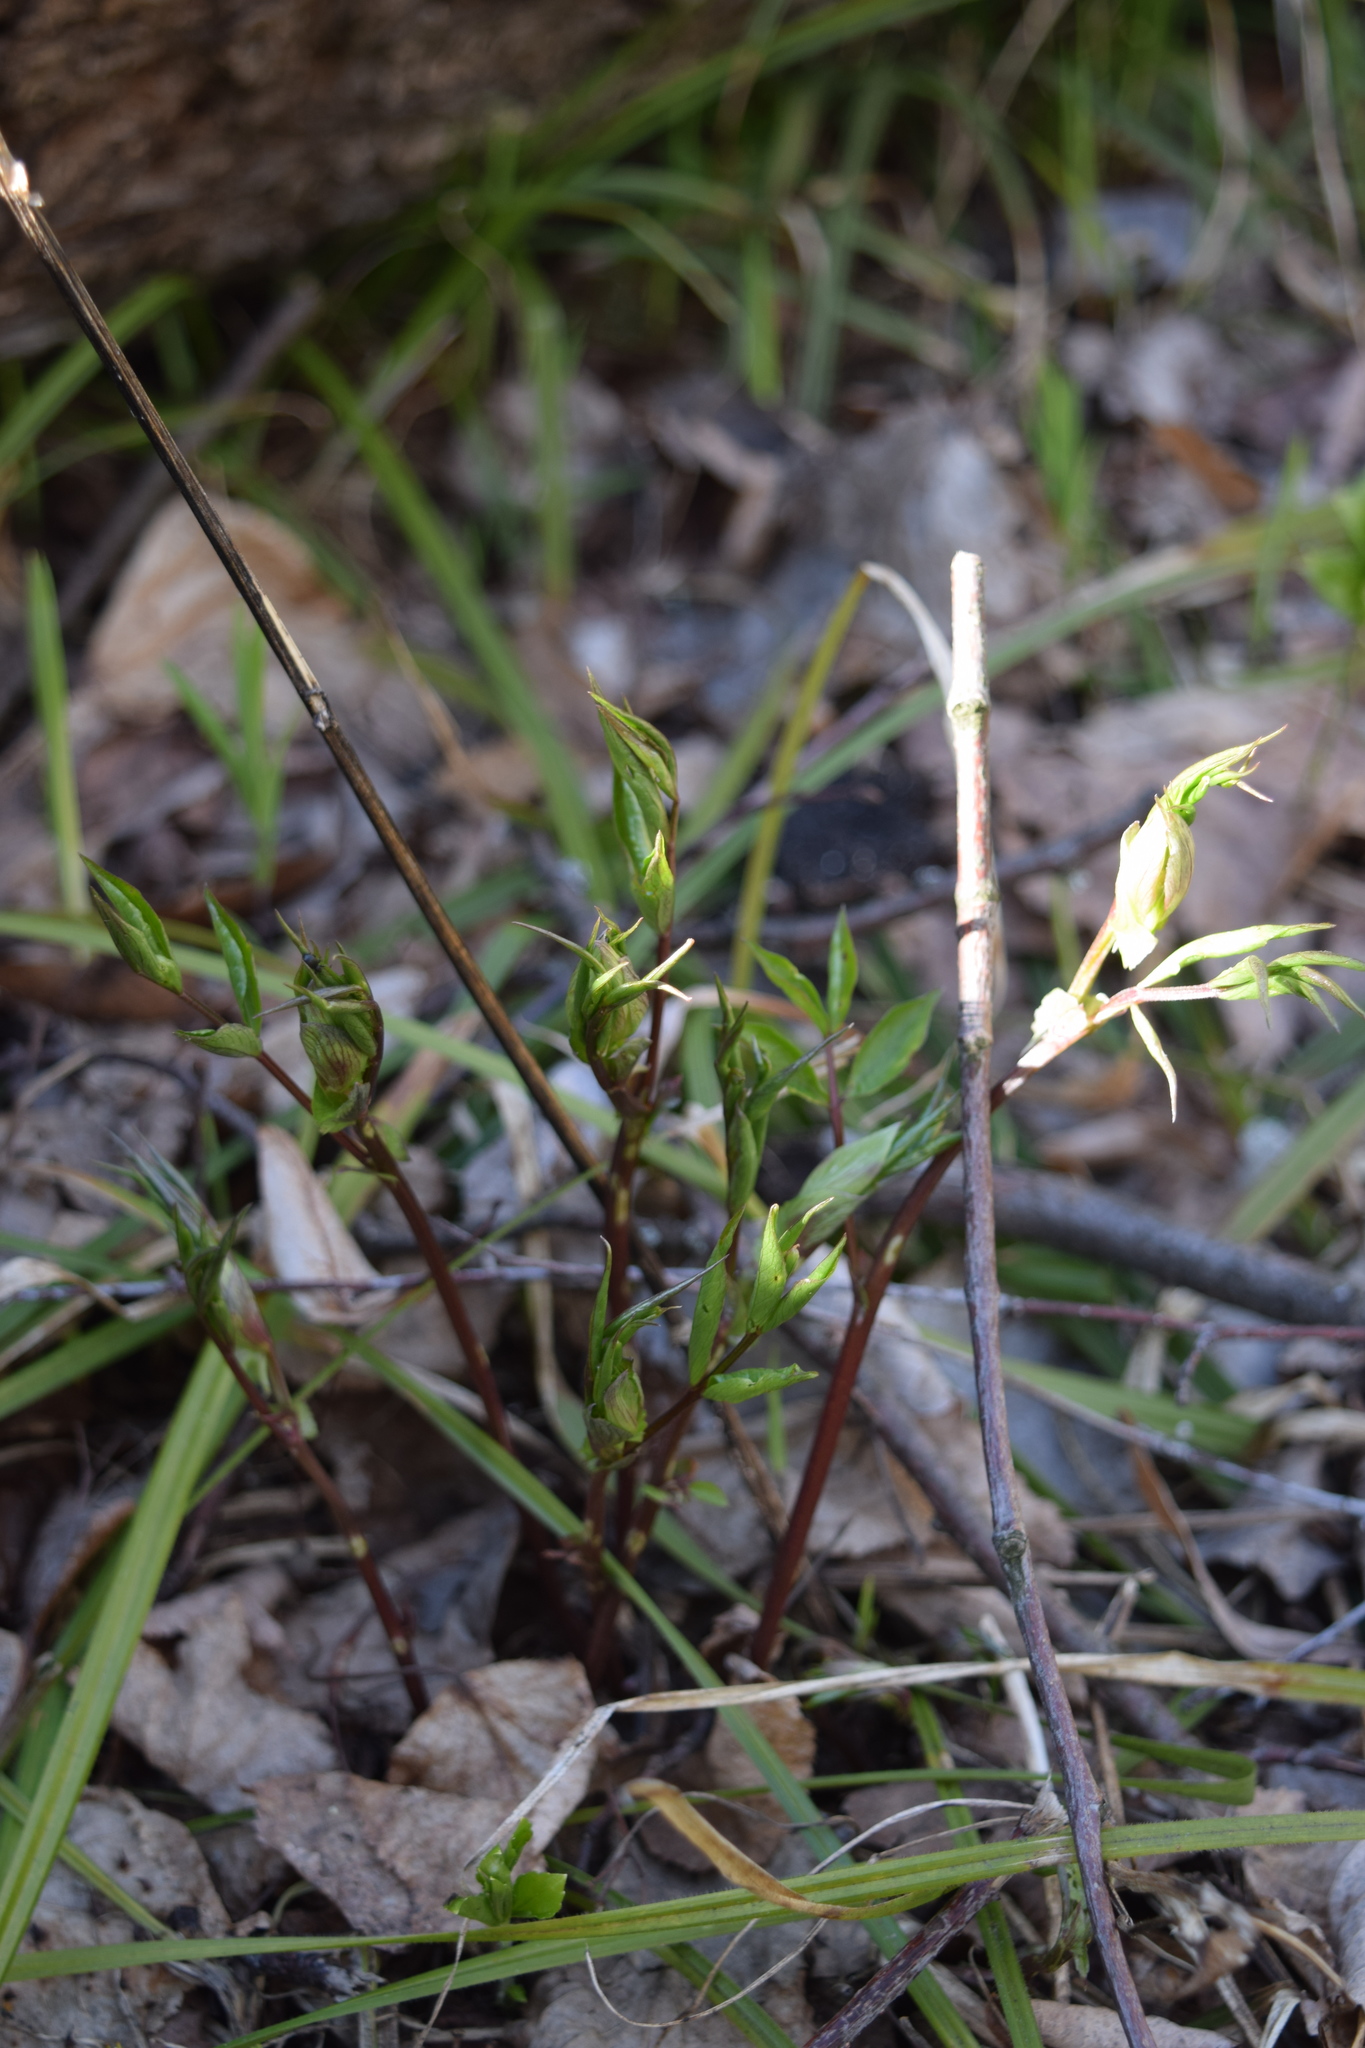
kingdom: Plantae
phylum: Tracheophyta
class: Magnoliopsida
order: Fabales
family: Fabaceae
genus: Lathyrus
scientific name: Lathyrus vernus
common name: Spring pea
